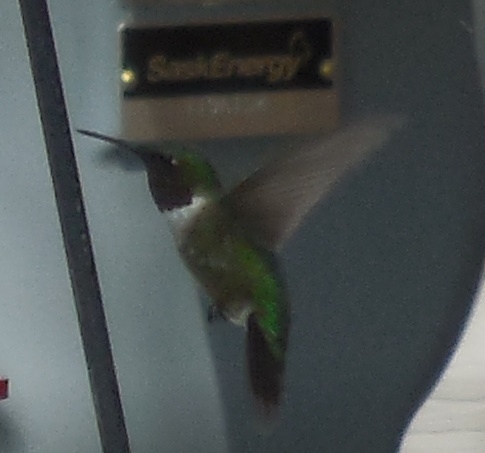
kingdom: Animalia
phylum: Chordata
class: Aves
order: Apodiformes
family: Trochilidae
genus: Archilochus
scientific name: Archilochus colubris
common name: Ruby-throated hummingbird
